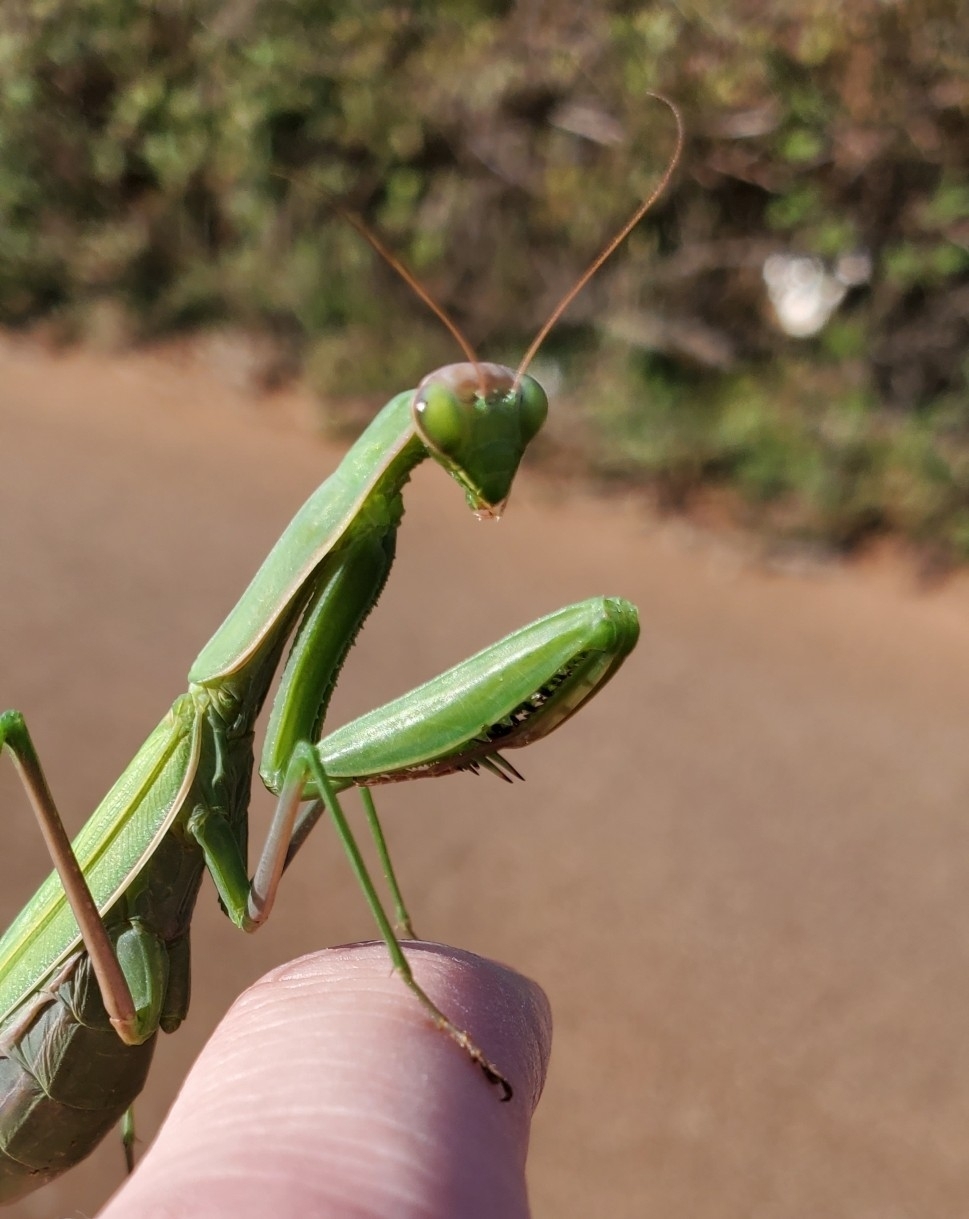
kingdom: Animalia
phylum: Arthropoda
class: Insecta
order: Mantodea
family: Mantidae
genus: Mantis
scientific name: Mantis religiosa
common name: Praying mantis
